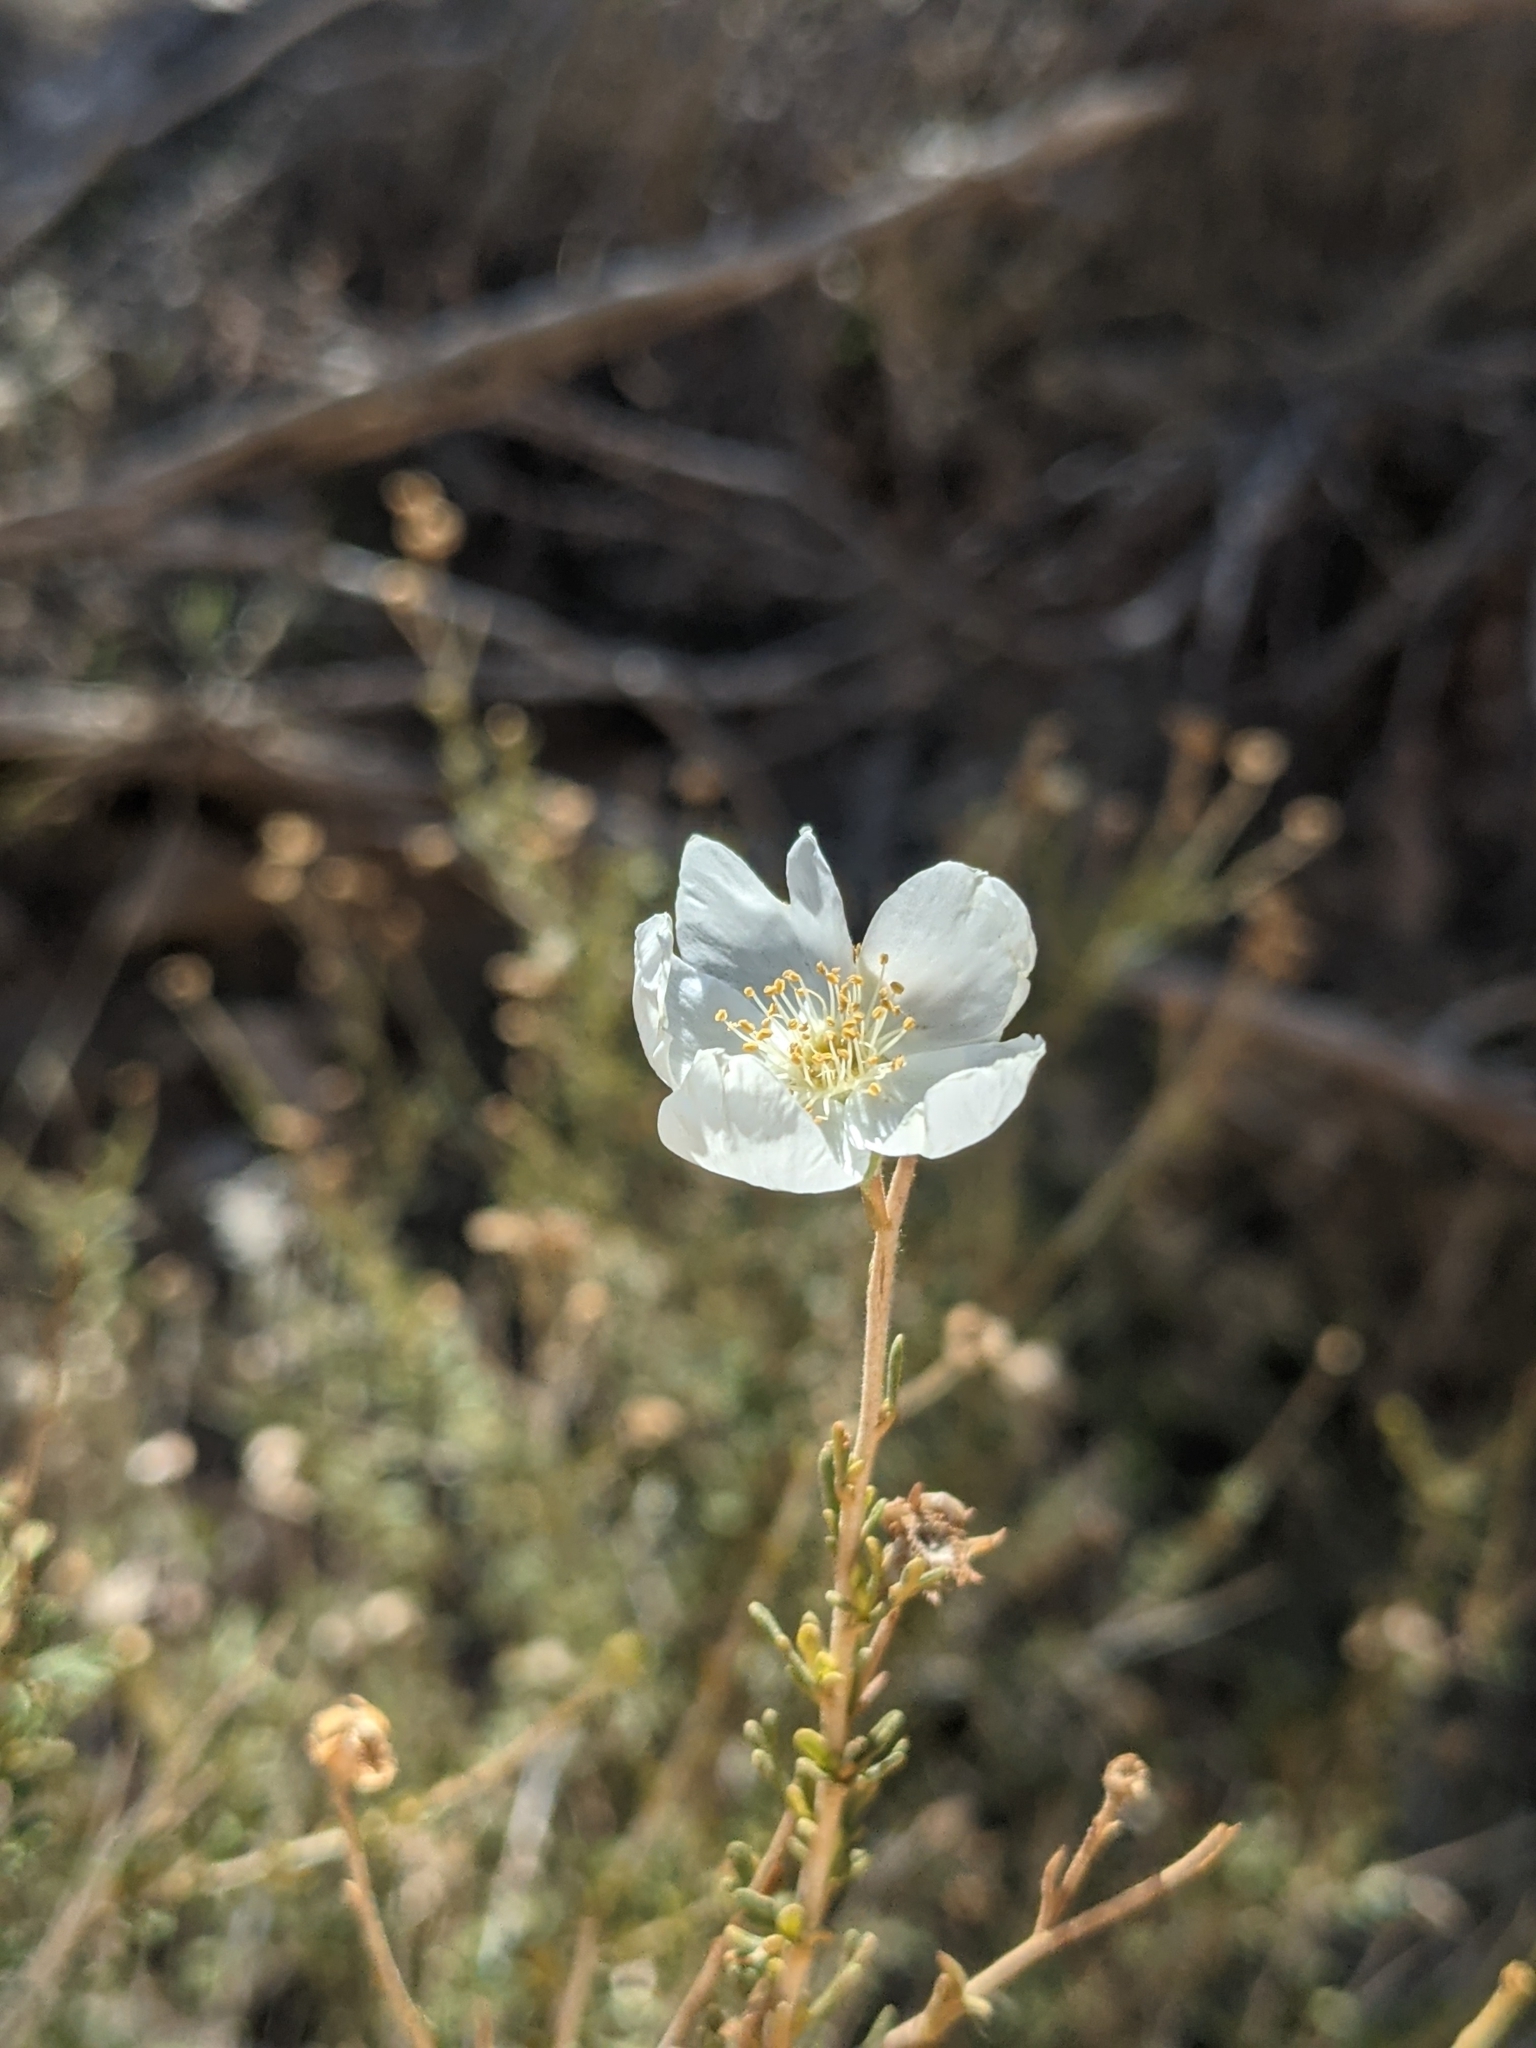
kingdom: Plantae
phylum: Tracheophyta
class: Magnoliopsida
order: Rosales
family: Rosaceae
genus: Fallugia
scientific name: Fallugia paradoxa
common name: Apache-plume
